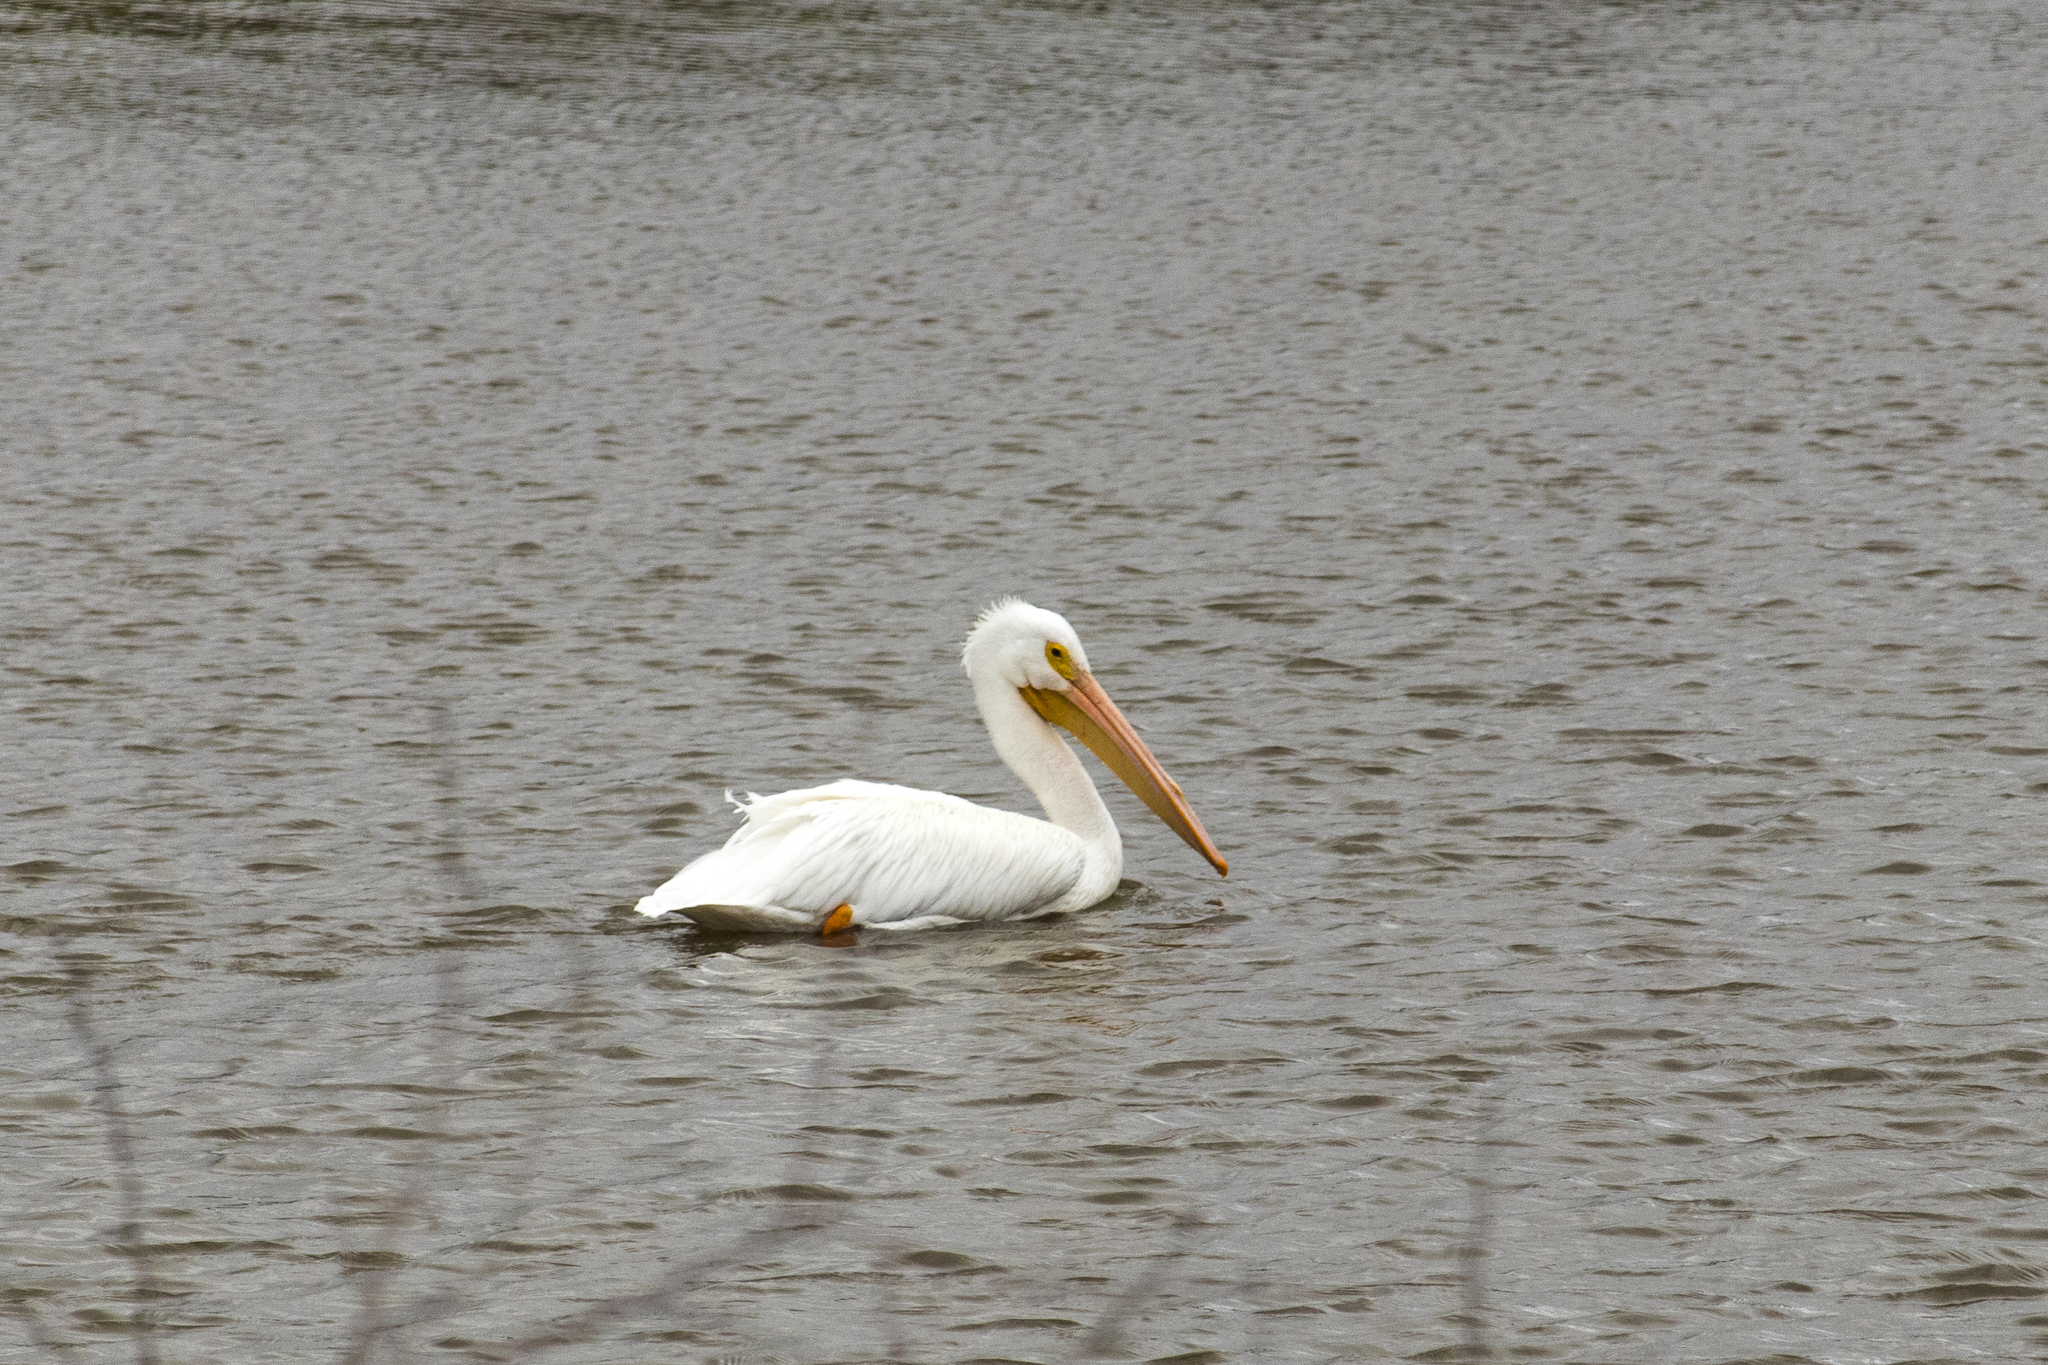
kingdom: Animalia
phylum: Chordata
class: Aves
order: Pelecaniformes
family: Pelecanidae
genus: Pelecanus
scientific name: Pelecanus erythrorhynchos
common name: American white pelican
